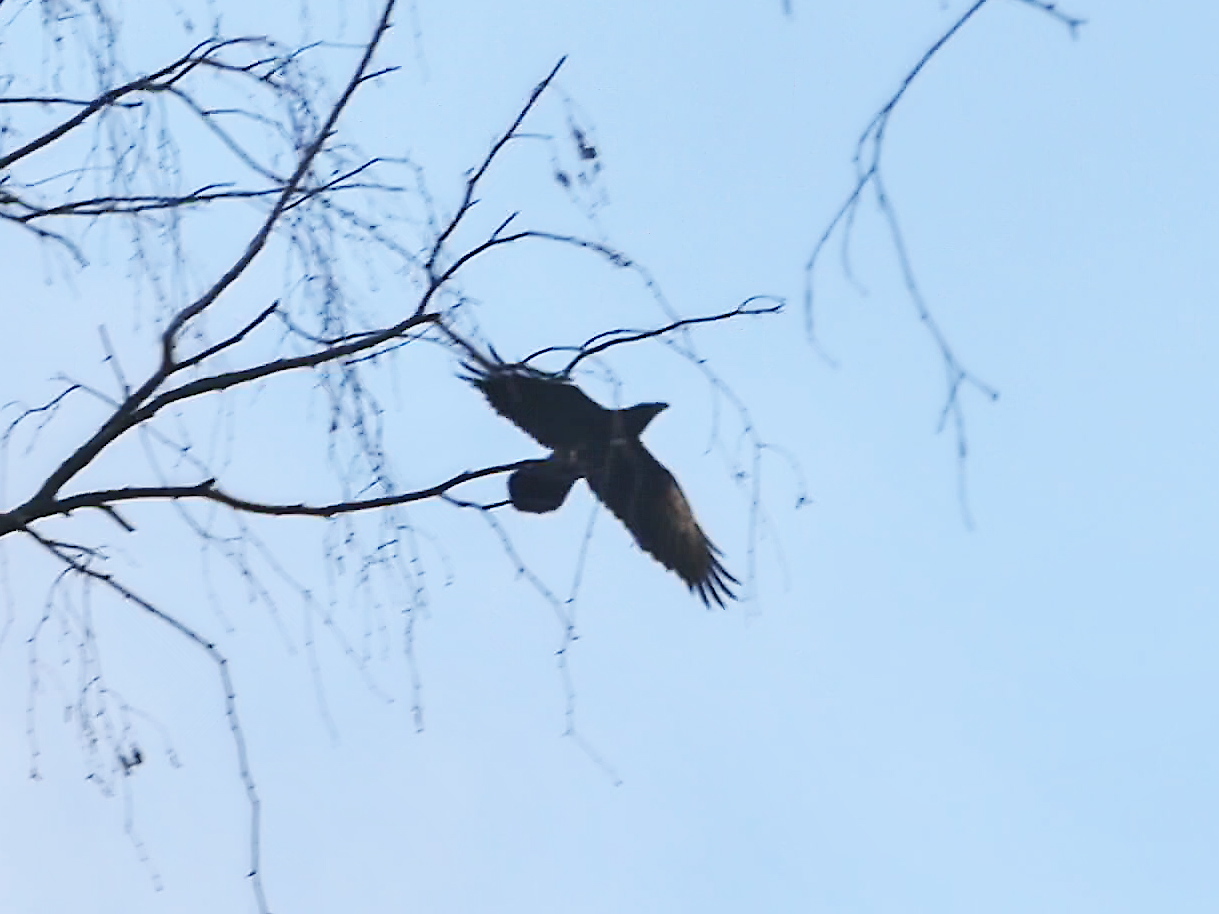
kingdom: Animalia
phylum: Chordata
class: Aves
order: Passeriformes
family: Corvidae
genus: Corvus
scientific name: Corvus corax
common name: Common raven
